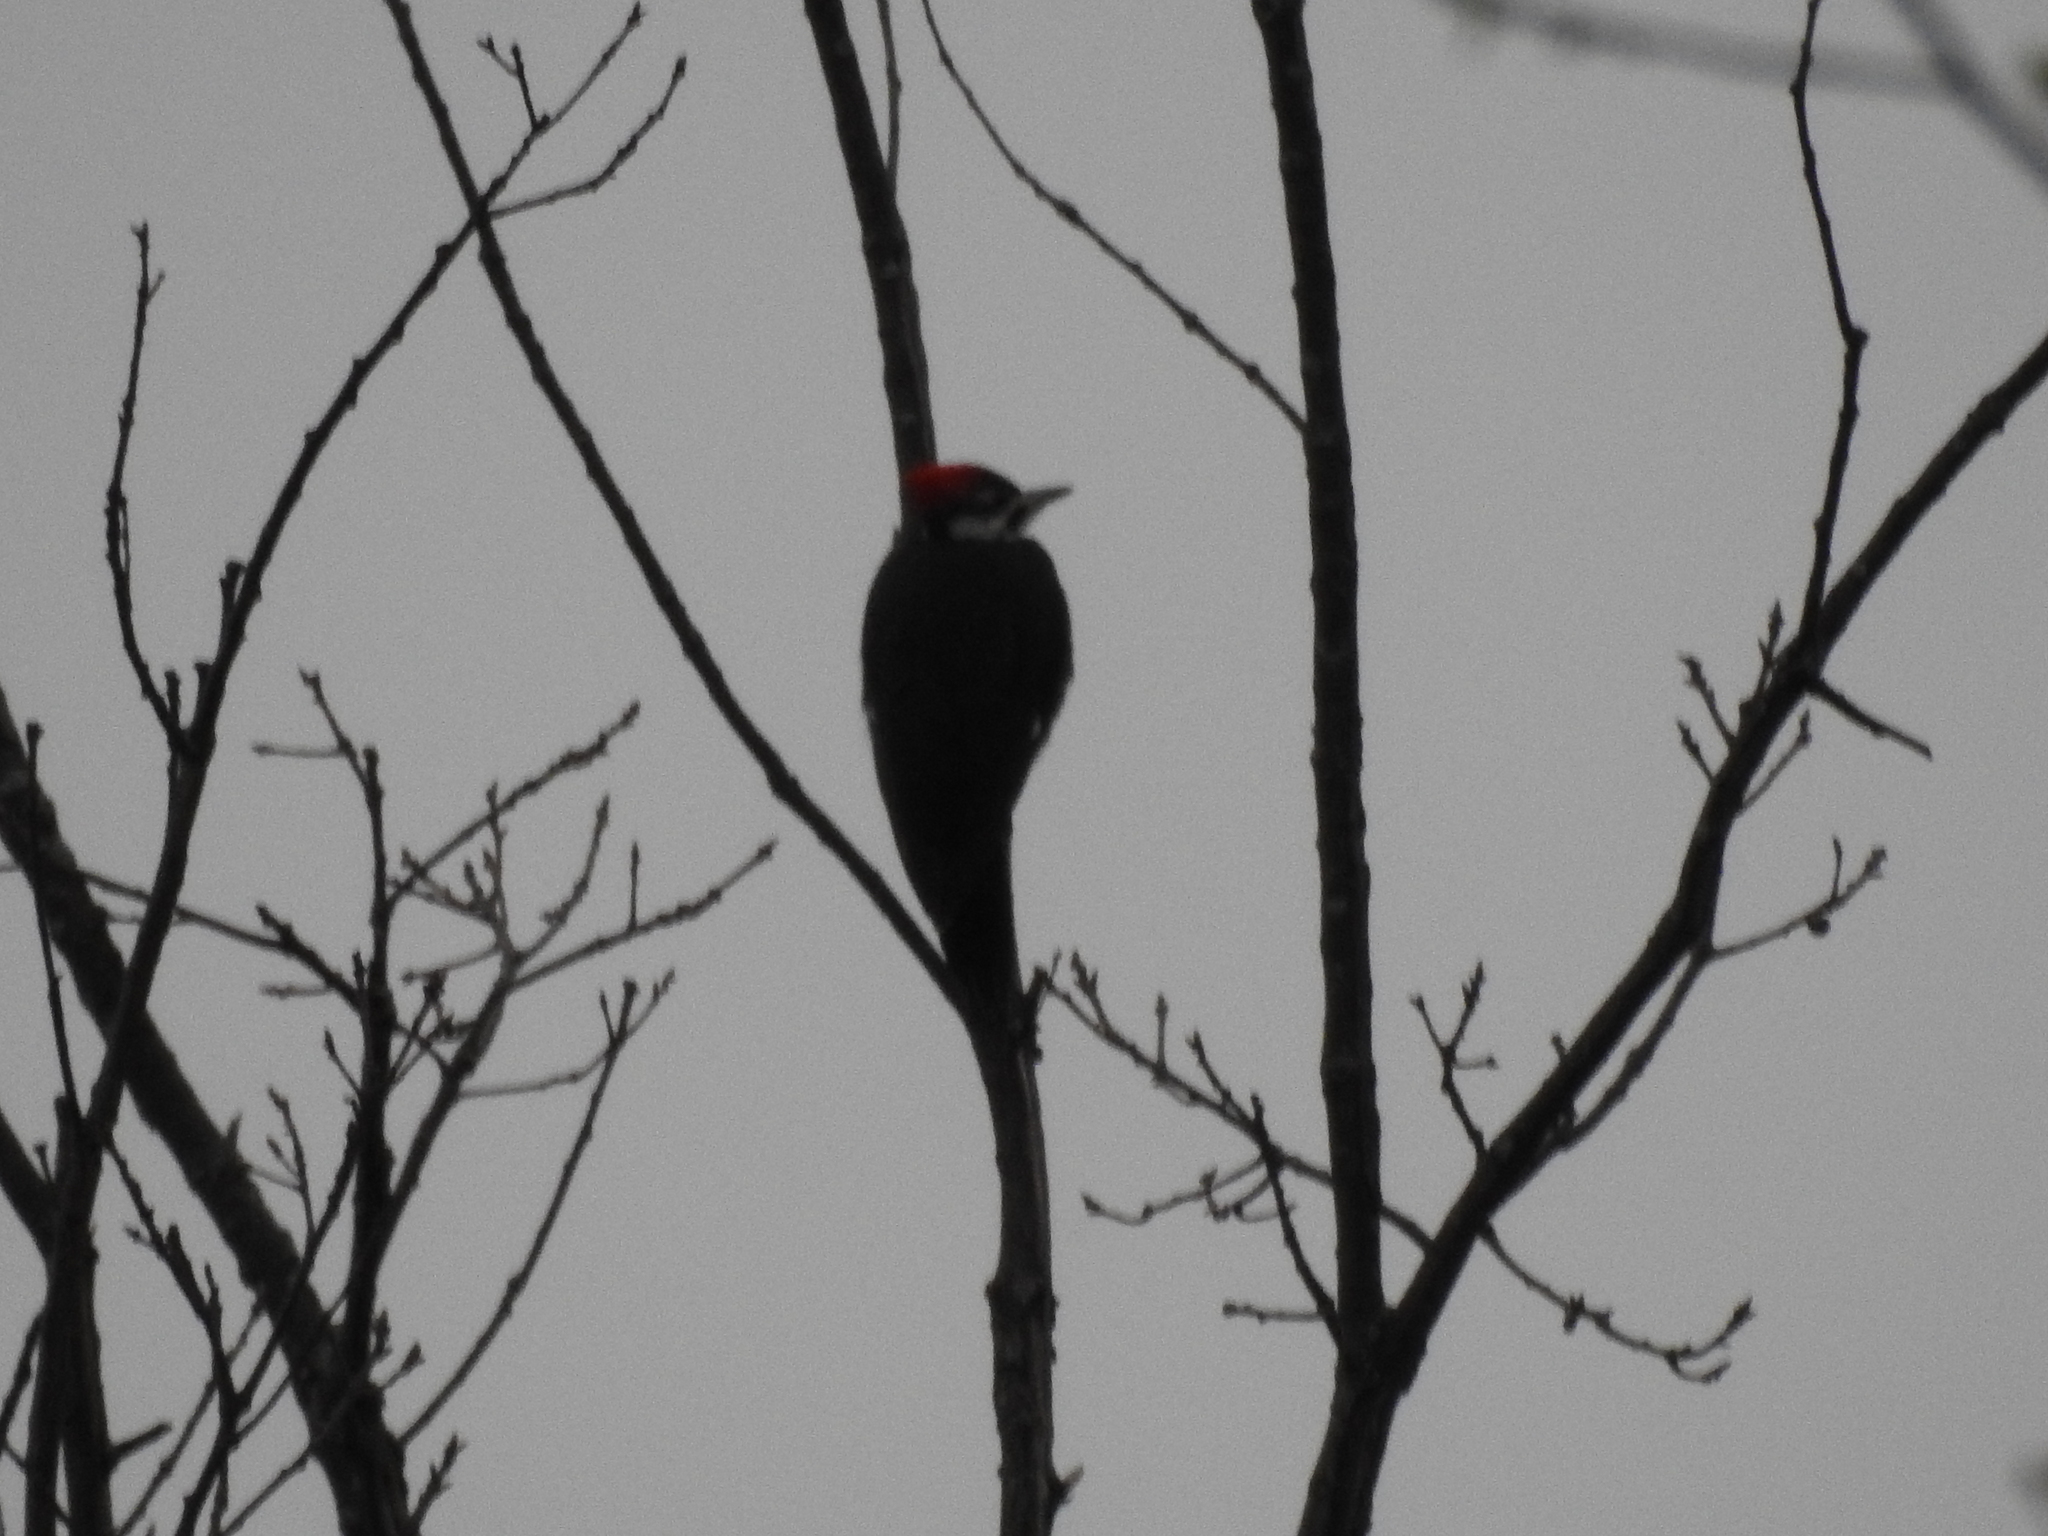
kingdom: Animalia
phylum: Chordata
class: Aves
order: Piciformes
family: Picidae
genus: Dryocopus
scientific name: Dryocopus pileatus
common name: Pileated woodpecker
